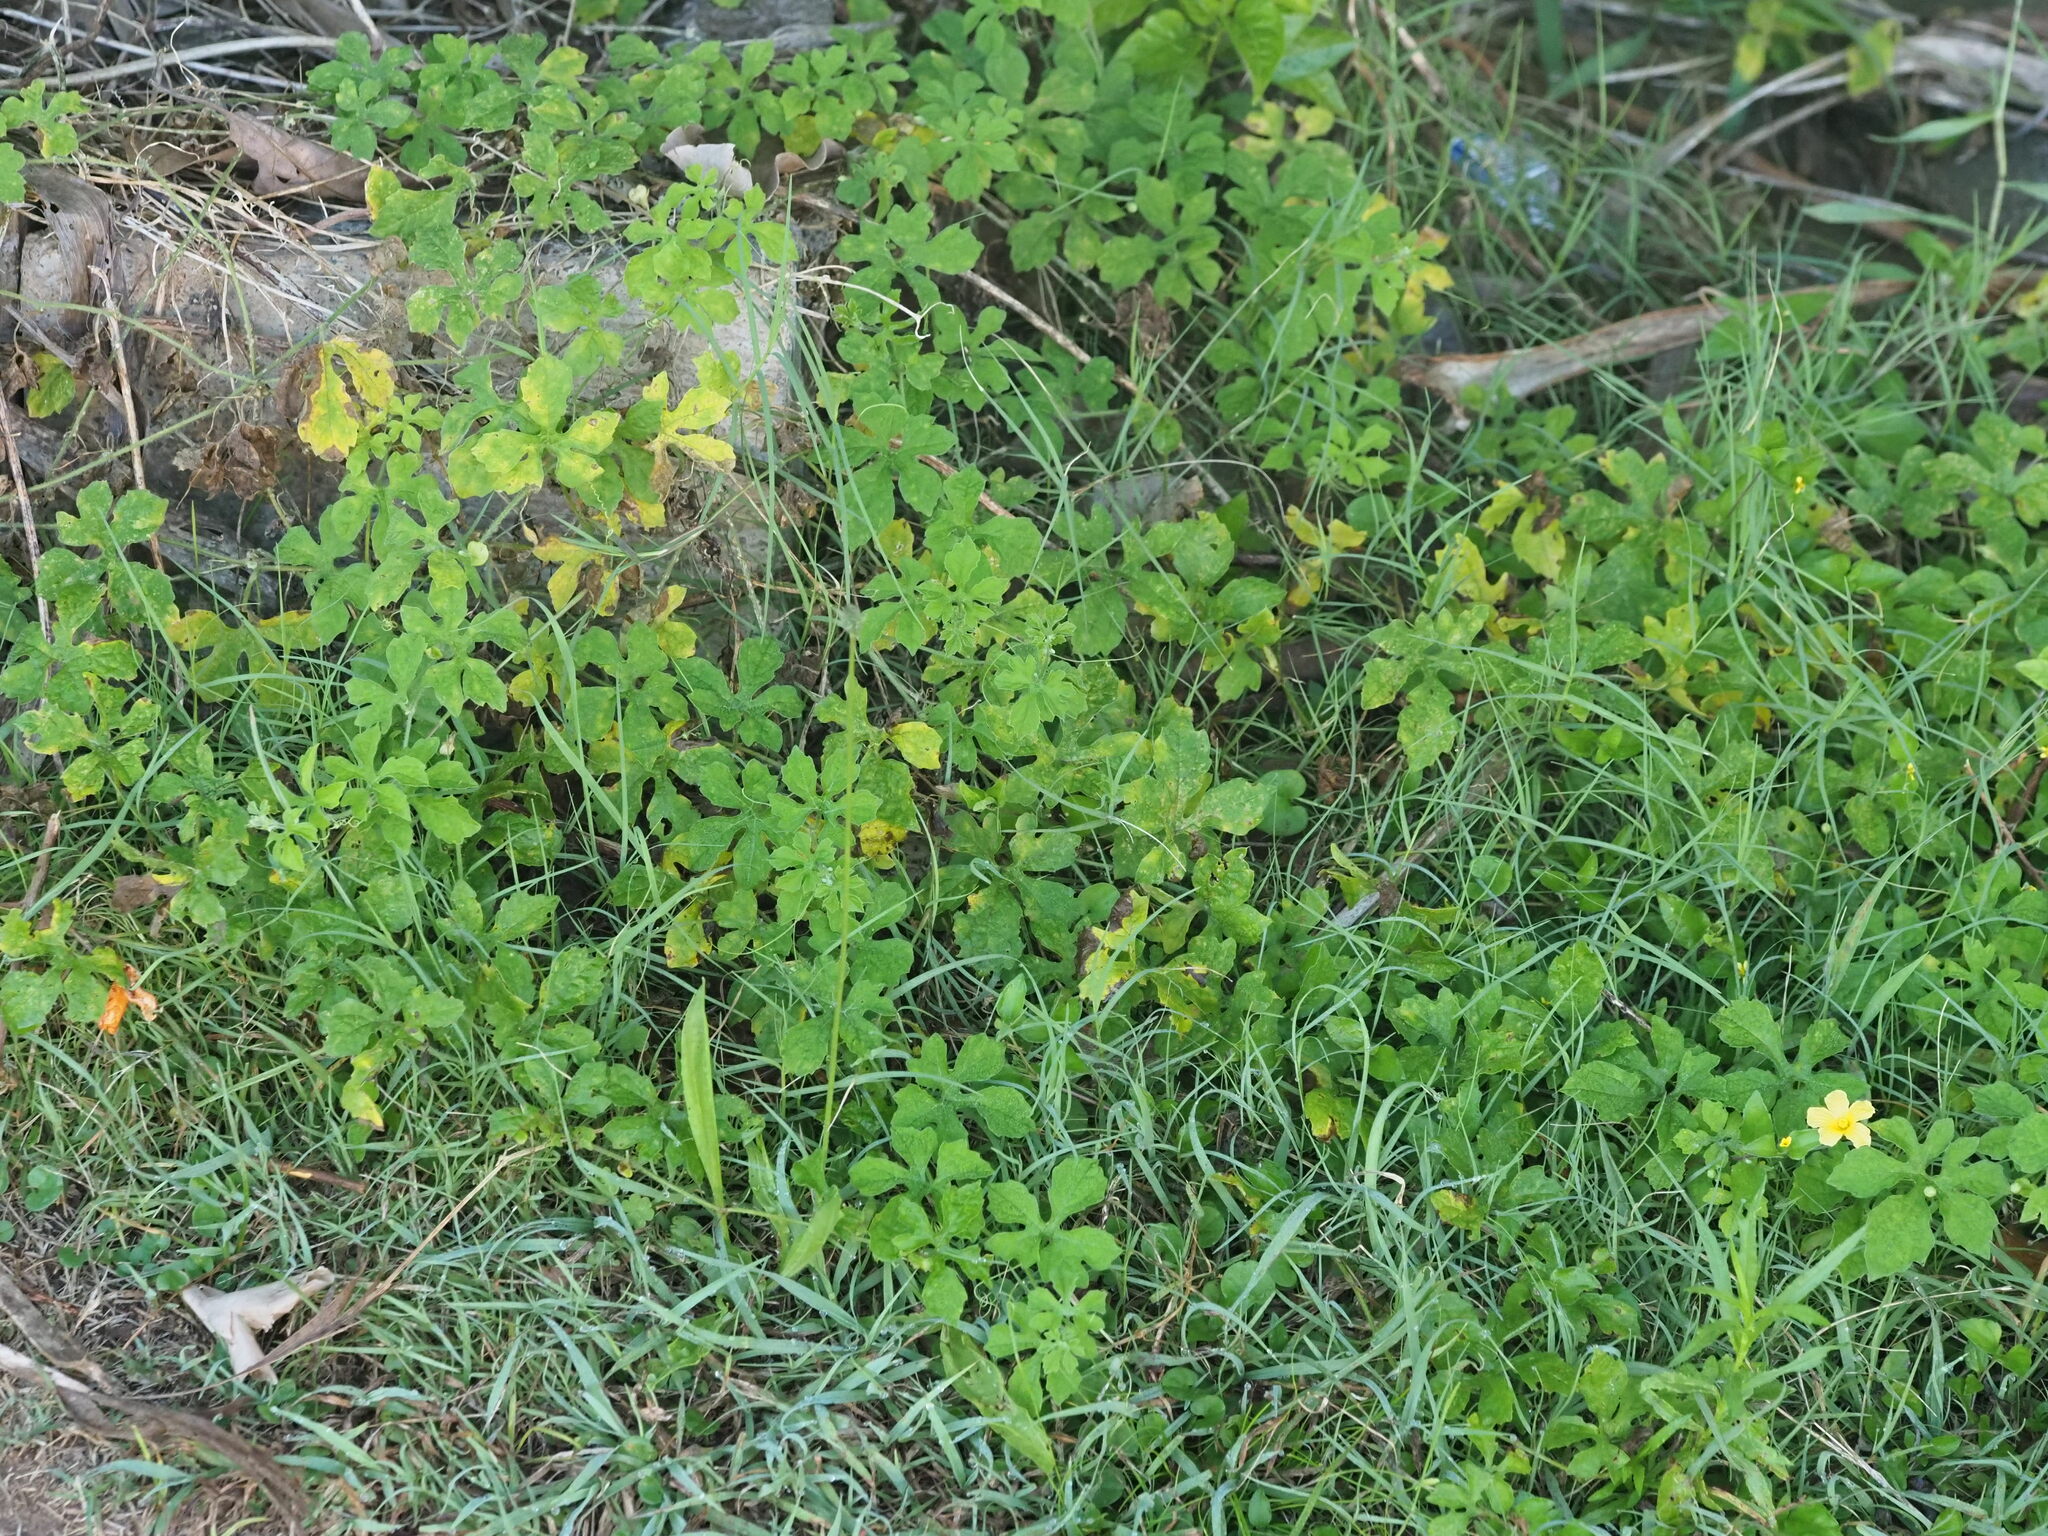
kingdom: Plantae
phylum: Tracheophyta
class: Magnoliopsida
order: Cucurbitales
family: Cucurbitaceae
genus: Momordica
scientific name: Momordica charantia
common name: Balsampear
